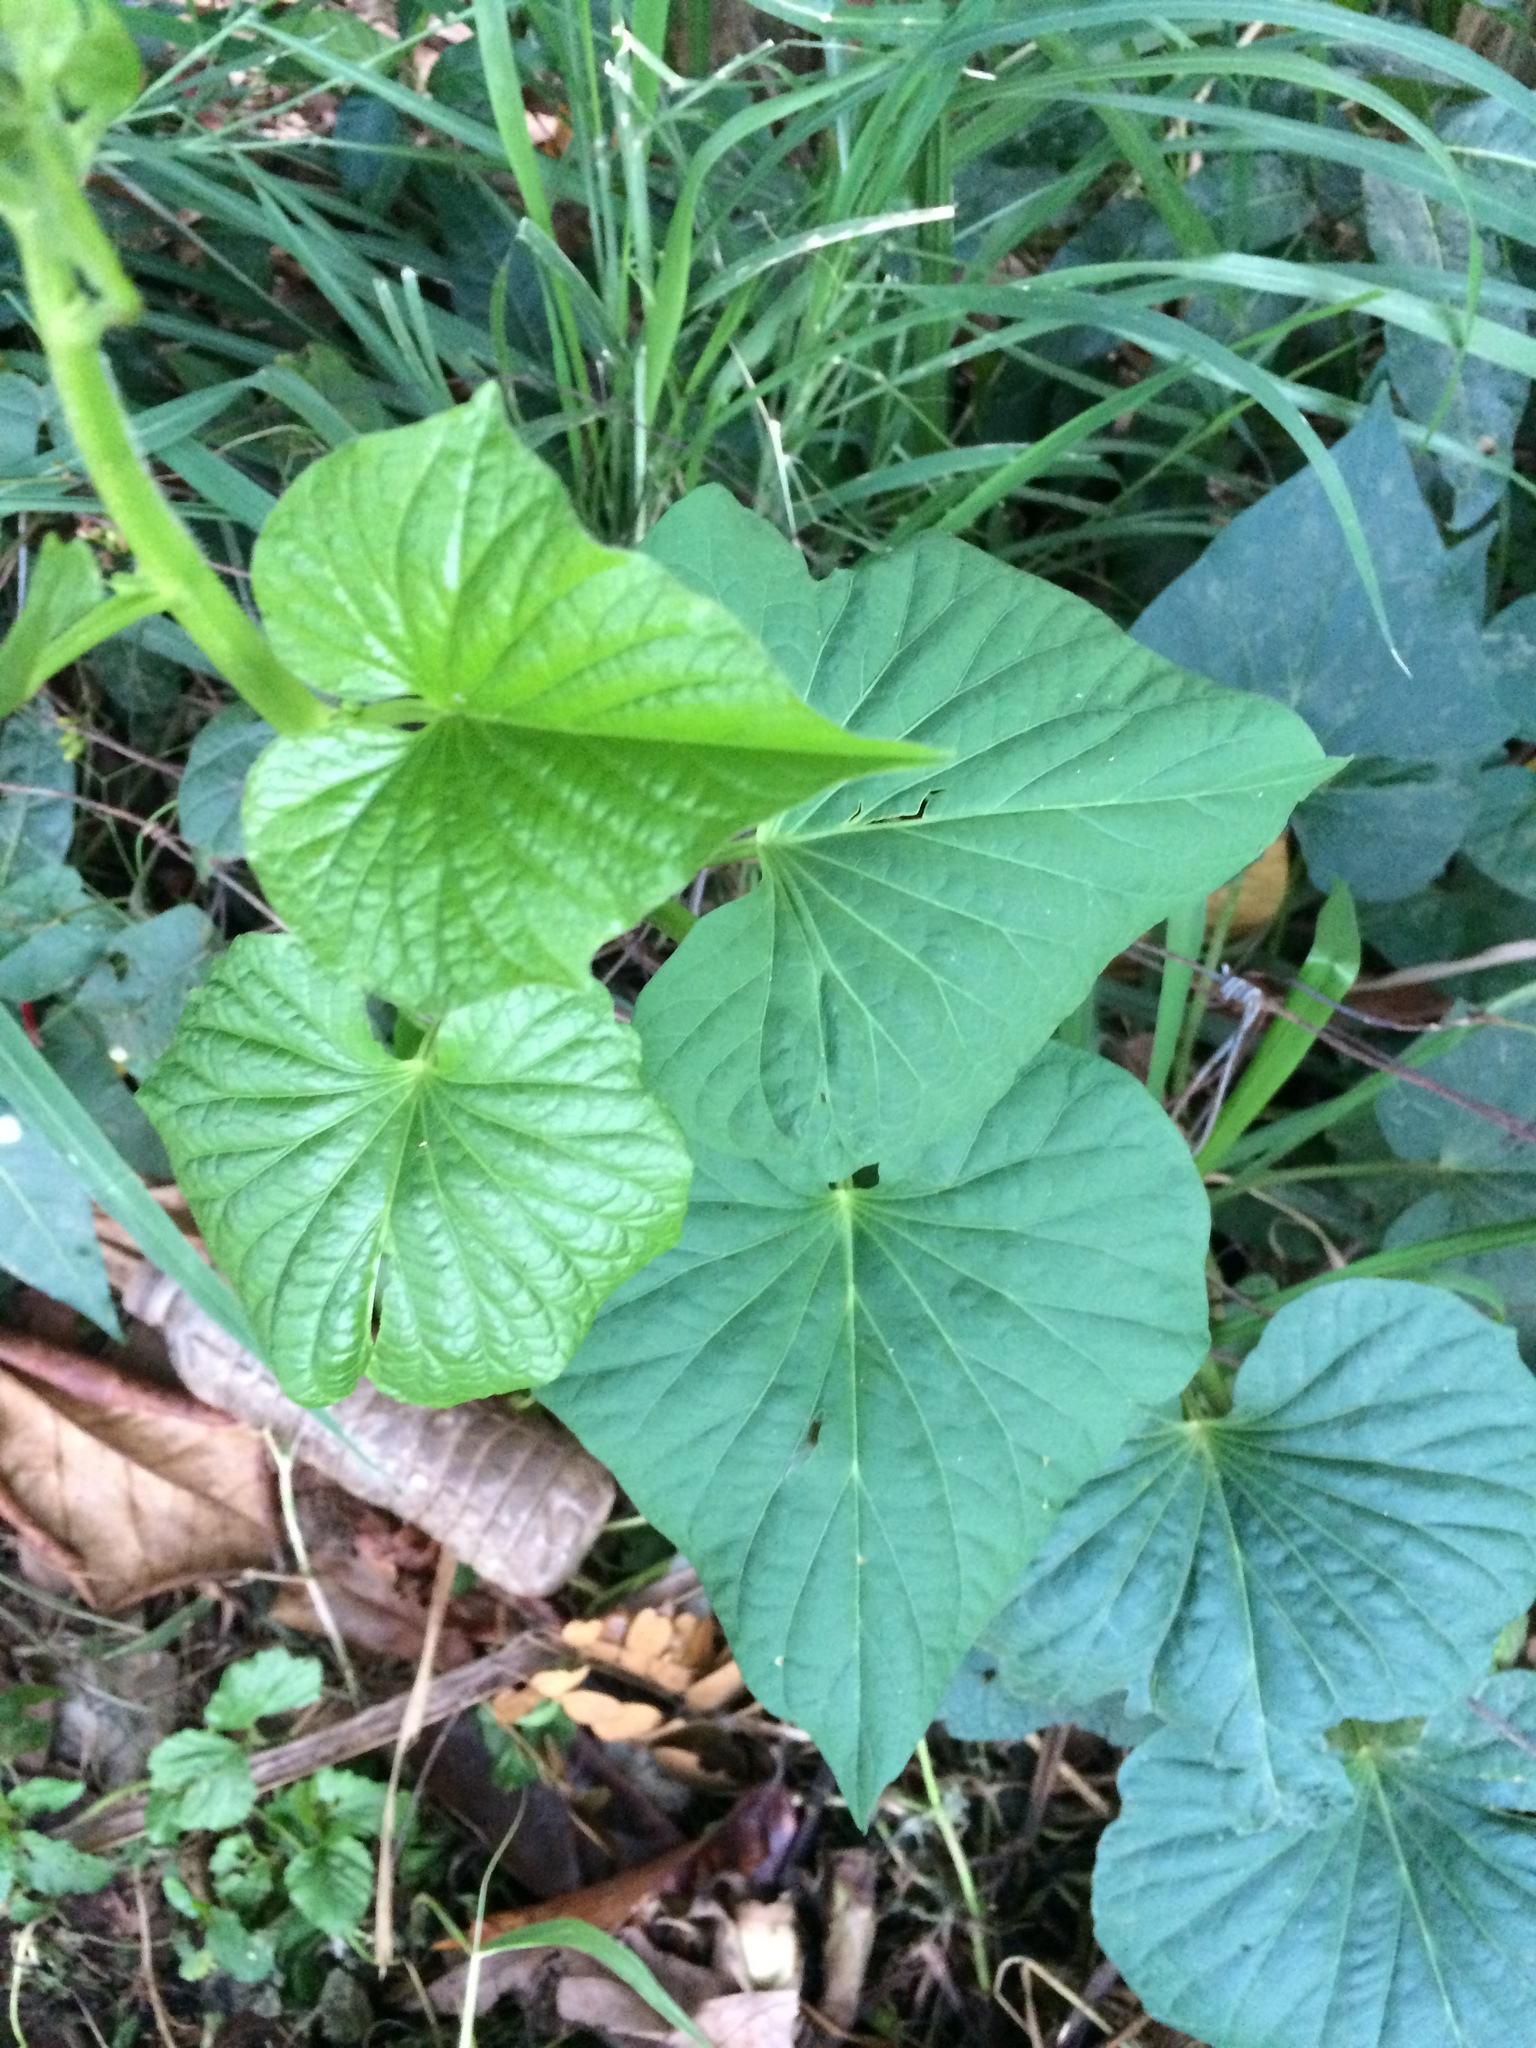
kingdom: Plantae
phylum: Tracheophyta
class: Magnoliopsida
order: Solanales
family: Convolvulaceae
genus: Ipomoea
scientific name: Ipomoea batatas
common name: Sweet-potato
